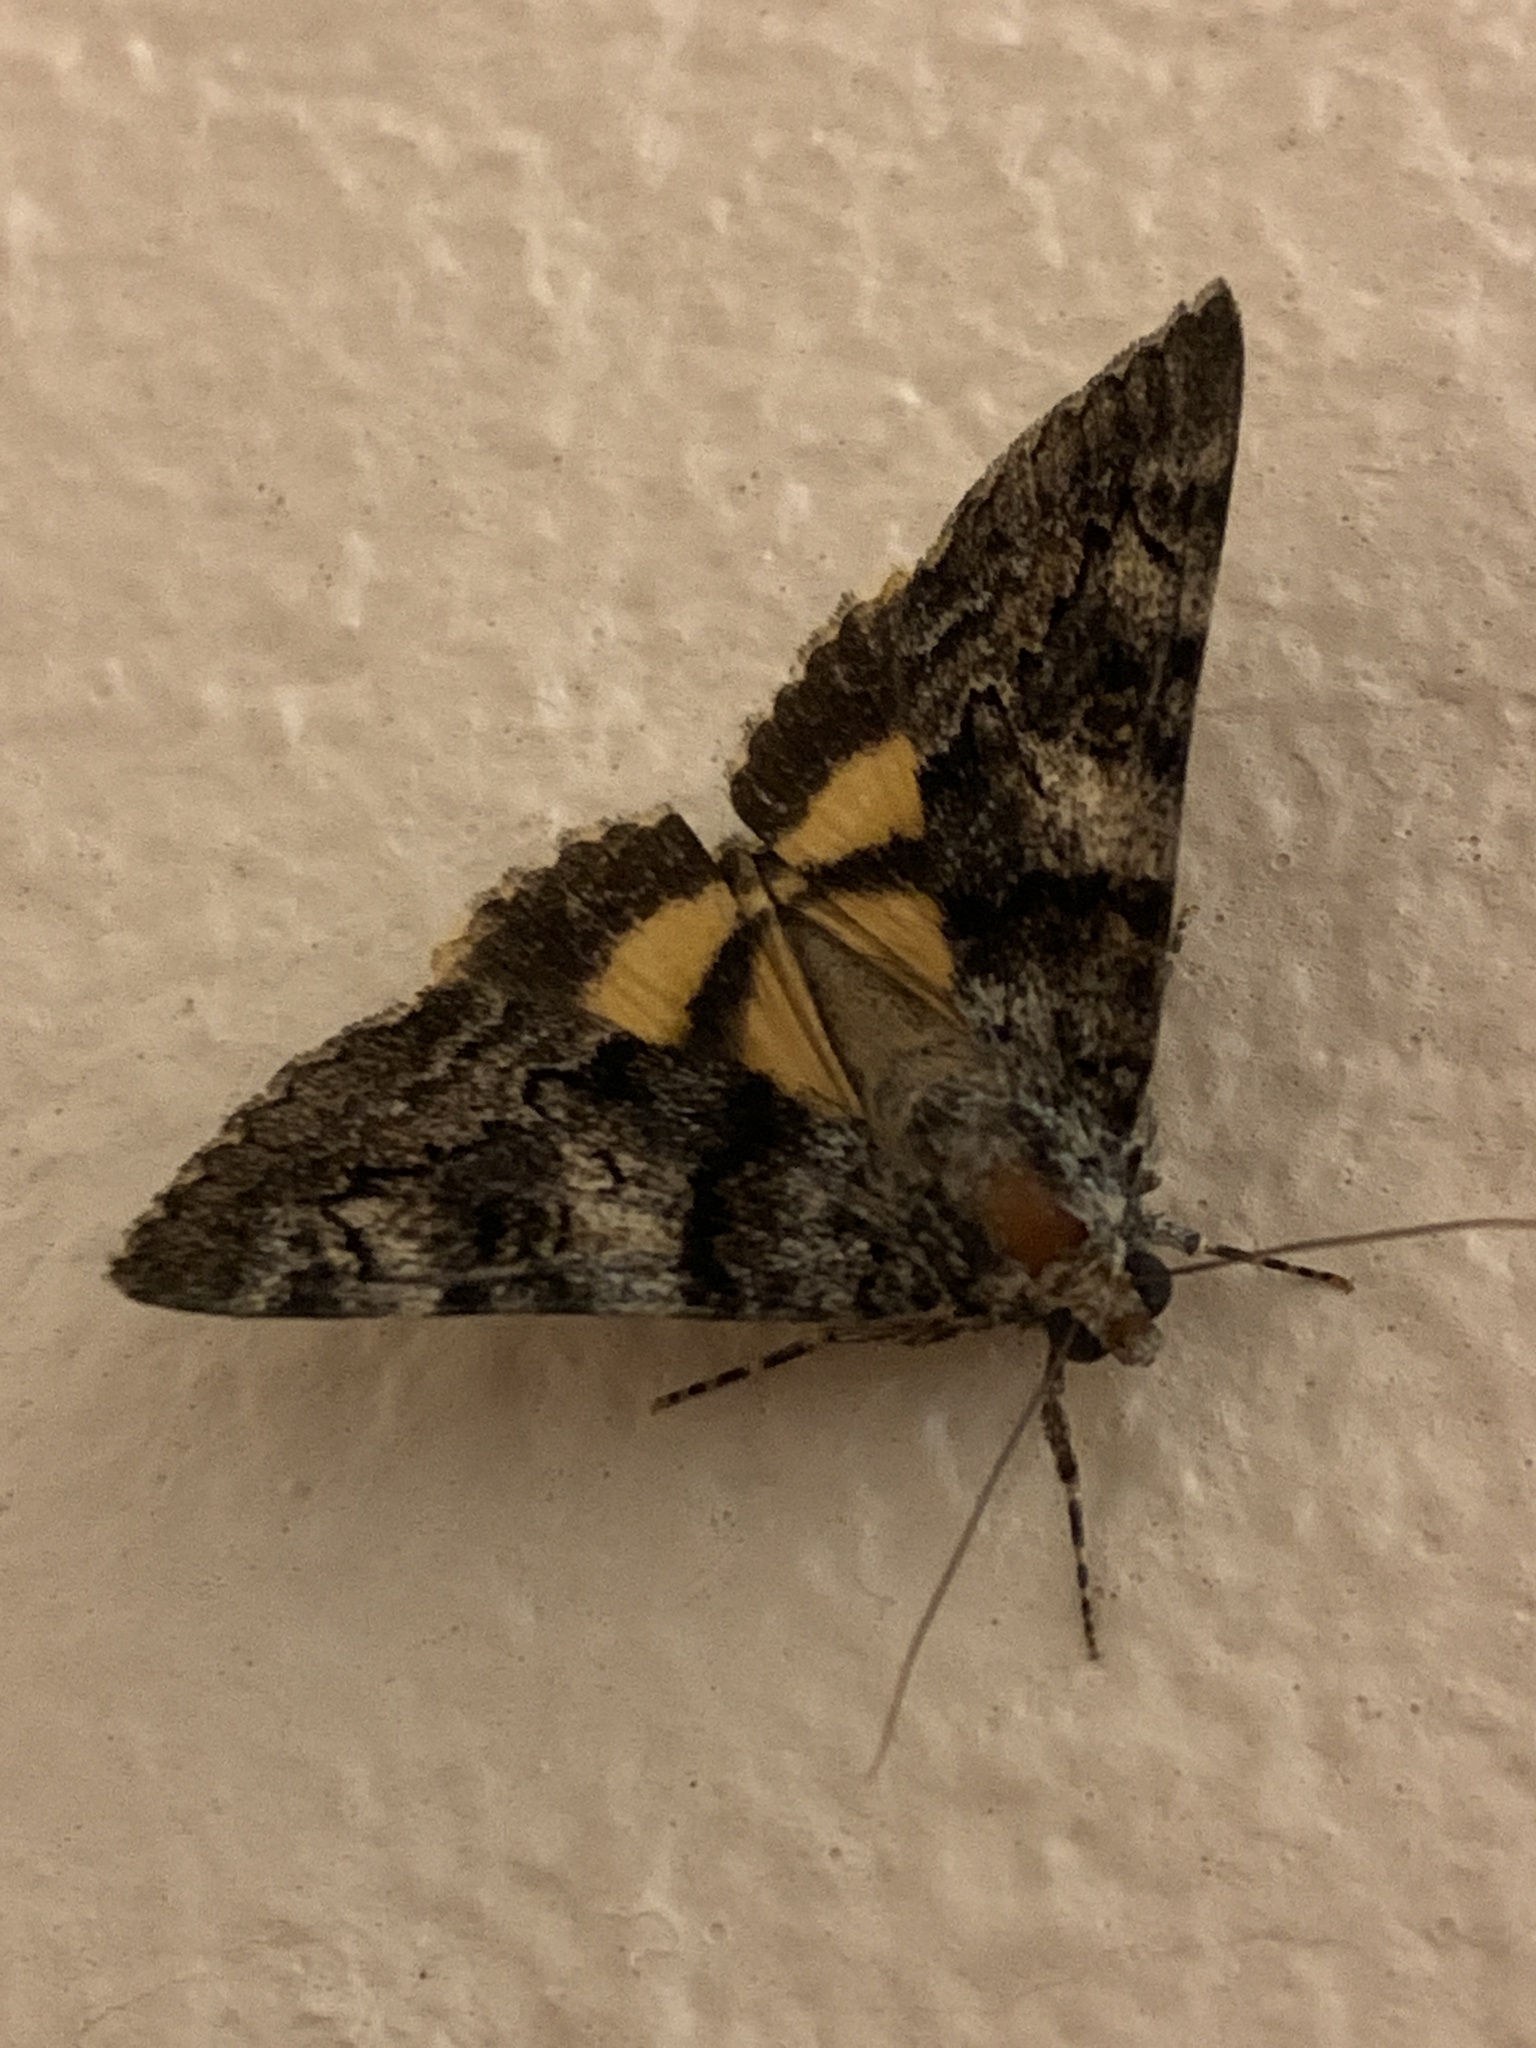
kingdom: Animalia
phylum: Arthropoda
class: Insecta
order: Lepidoptera
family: Erebidae
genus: Catocala
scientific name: Catocala nymphagoga
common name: Oak yellow underwing
